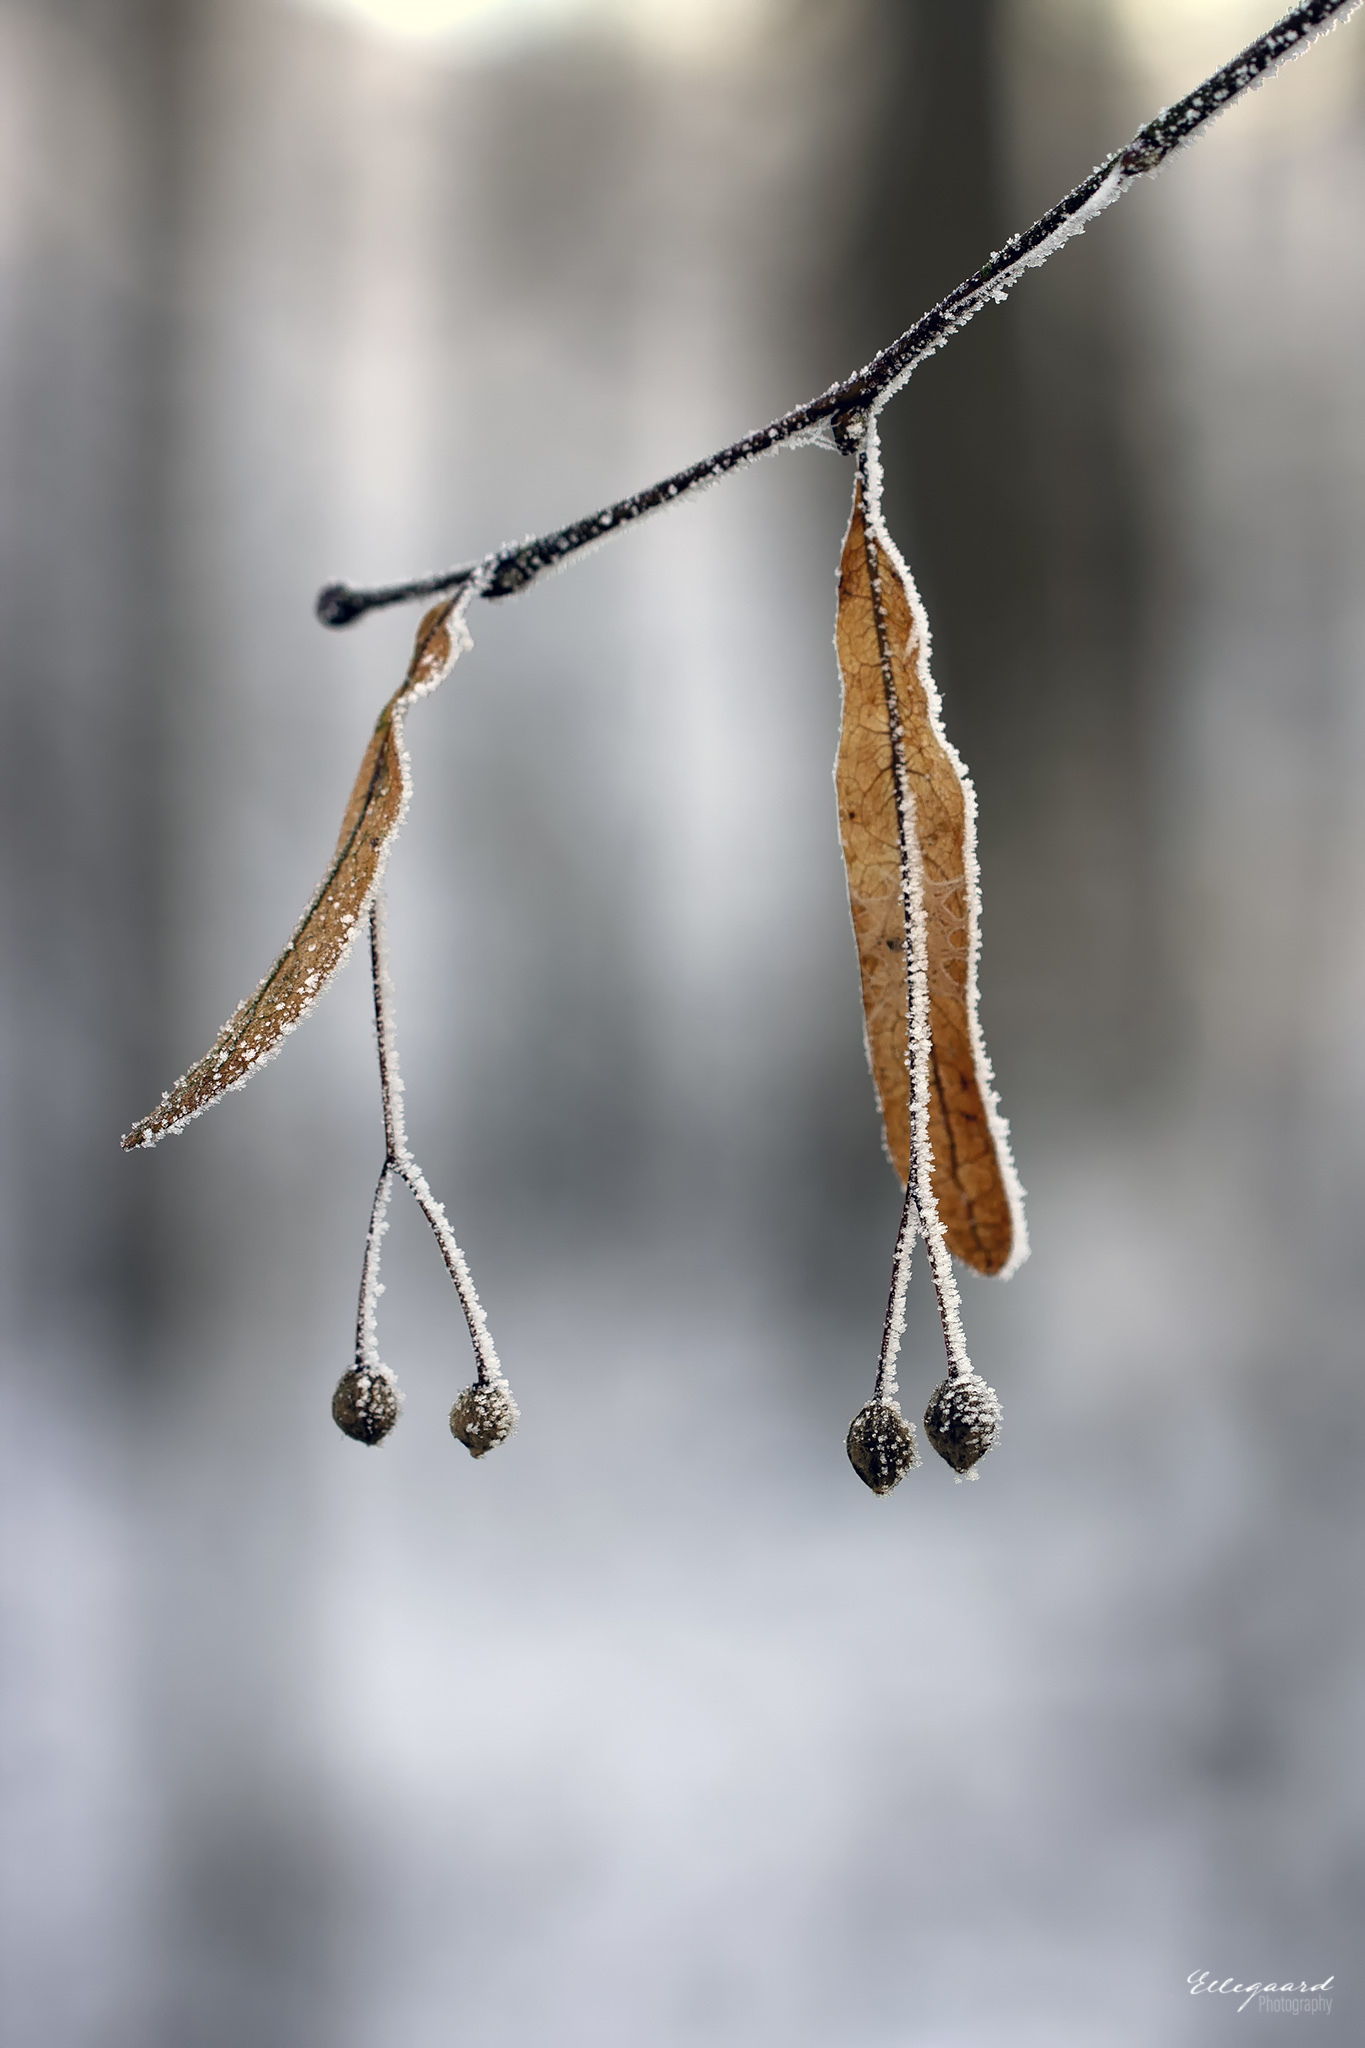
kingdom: Plantae
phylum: Tracheophyta
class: Magnoliopsida
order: Malvales
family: Malvaceae
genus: Tilia
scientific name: Tilia platyphyllos
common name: Large-leaved lime
